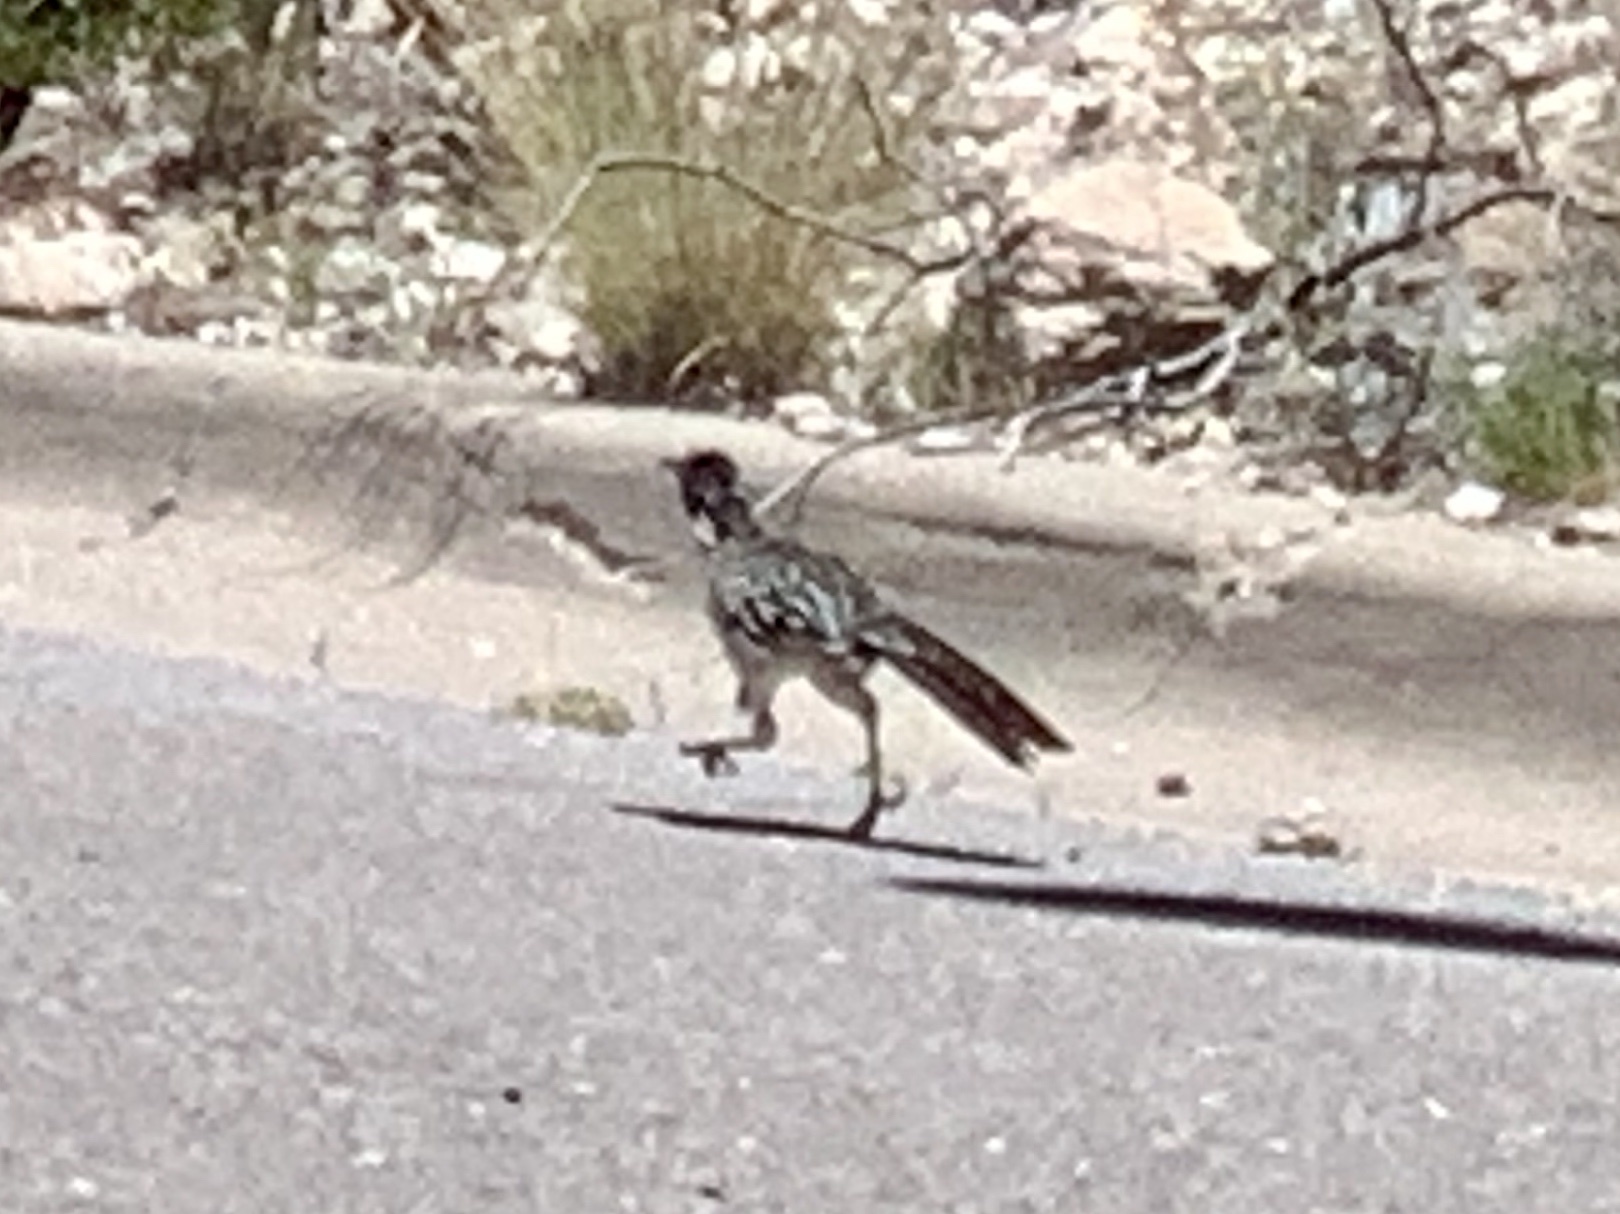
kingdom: Animalia
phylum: Chordata
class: Aves
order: Cuculiformes
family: Cuculidae
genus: Geococcyx
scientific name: Geococcyx californianus
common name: Greater roadrunner
